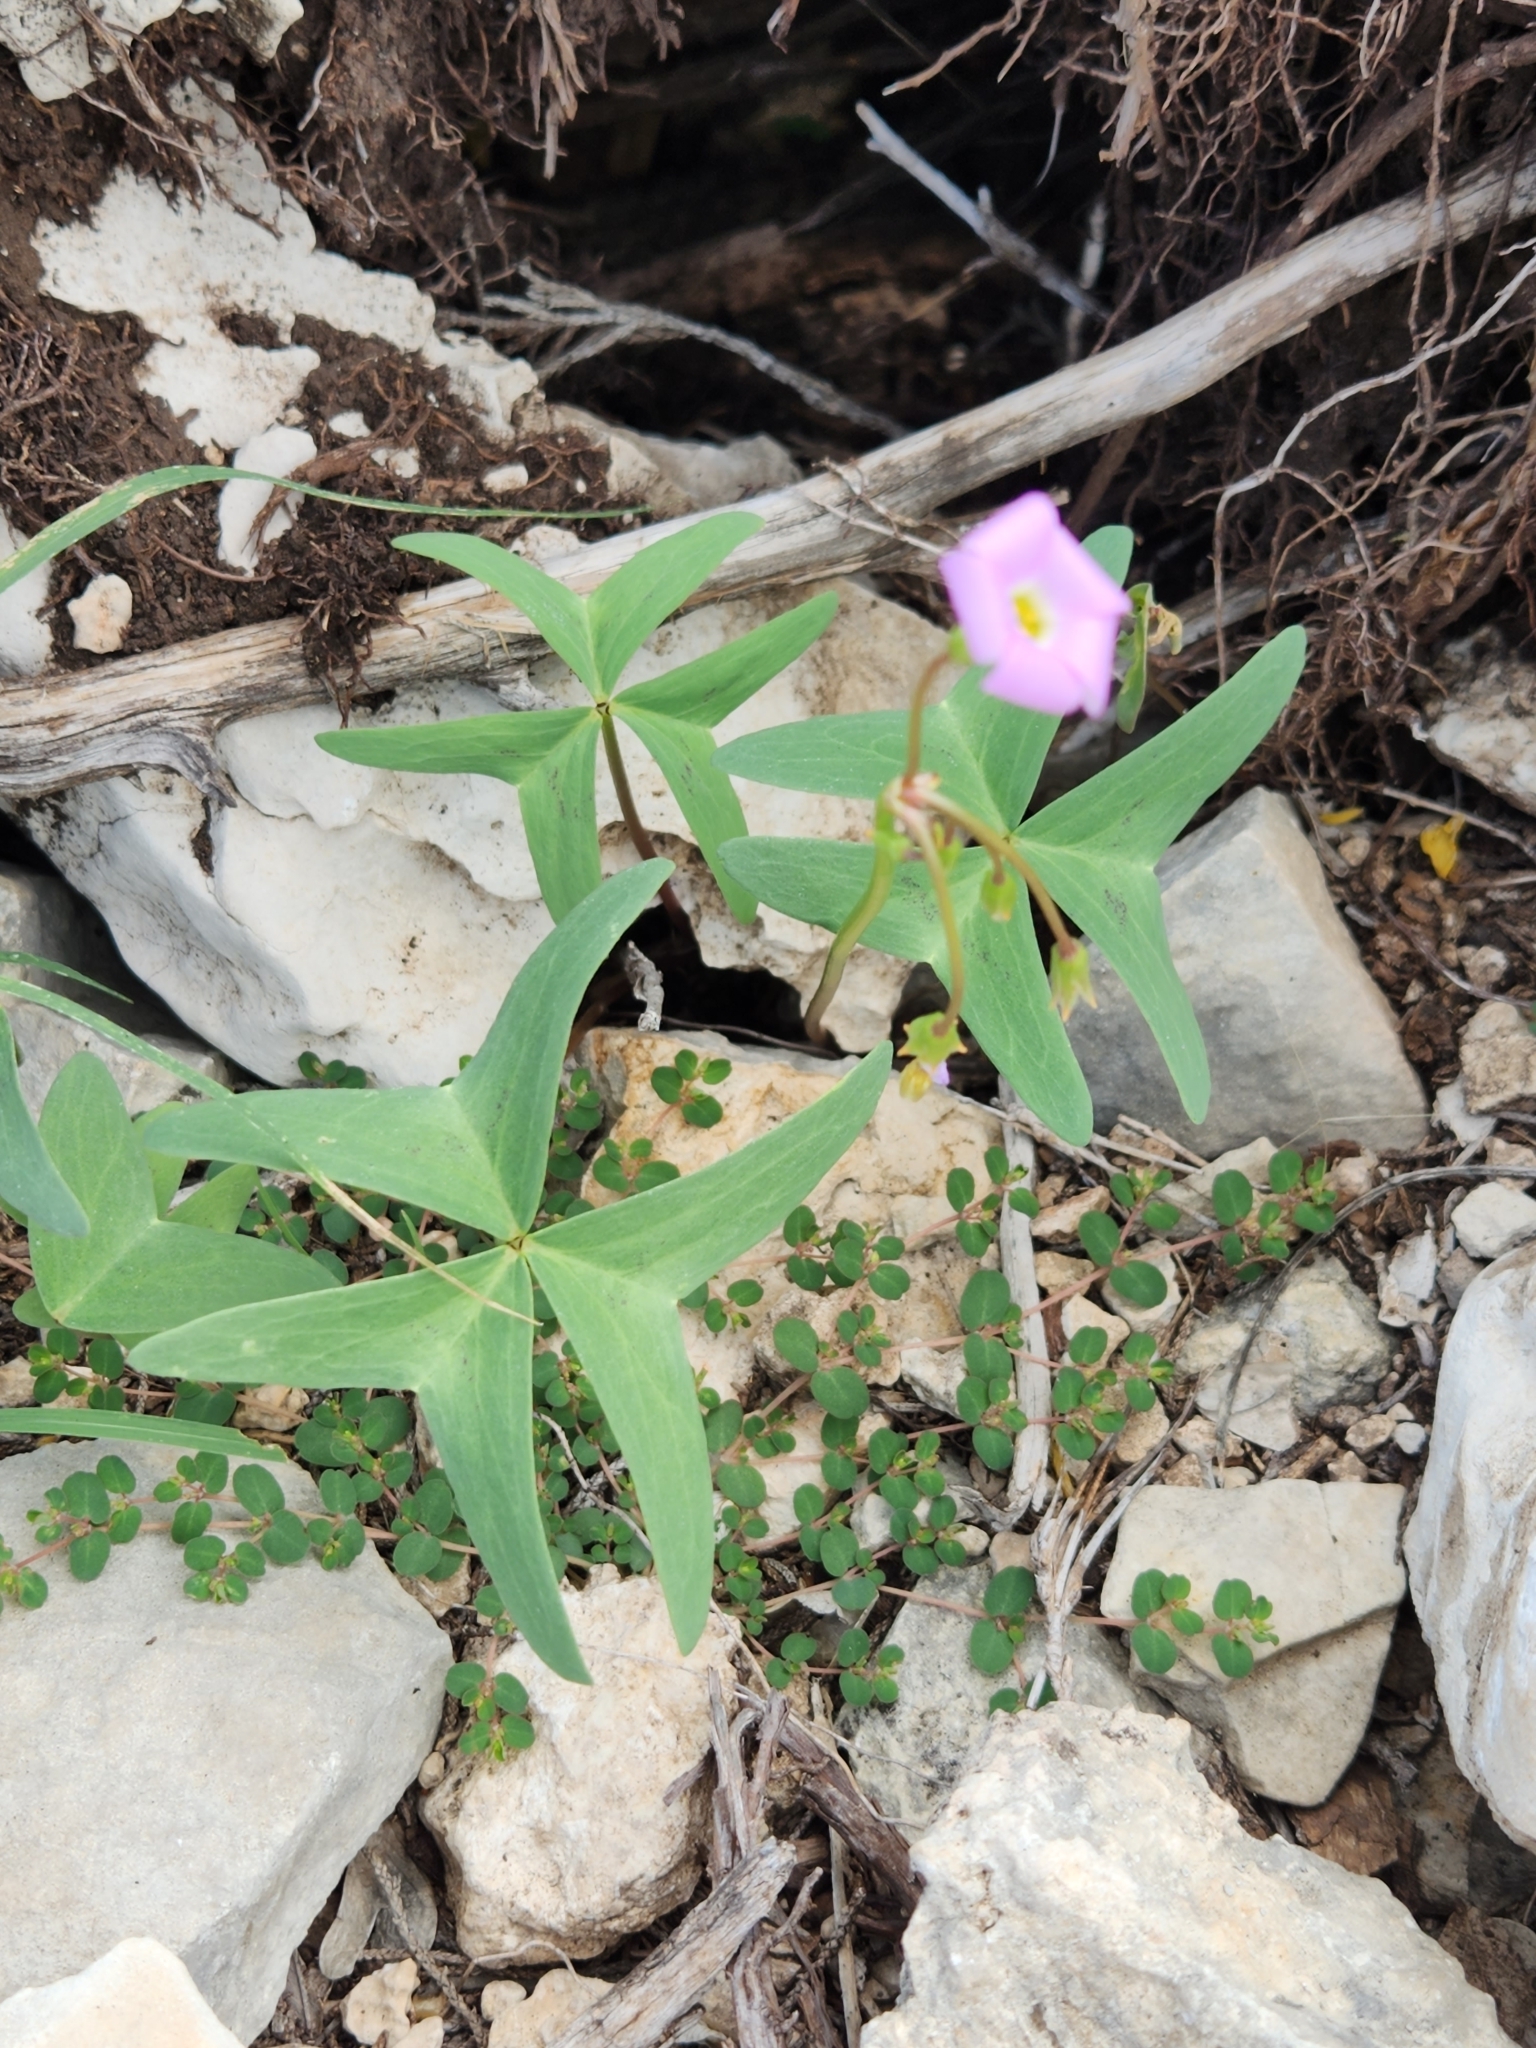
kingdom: Plantae
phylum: Tracheophyta
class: Magnoliopsida
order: Oxalidales
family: Oxalidaceae
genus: Oxalis
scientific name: Oxalis drummondii
